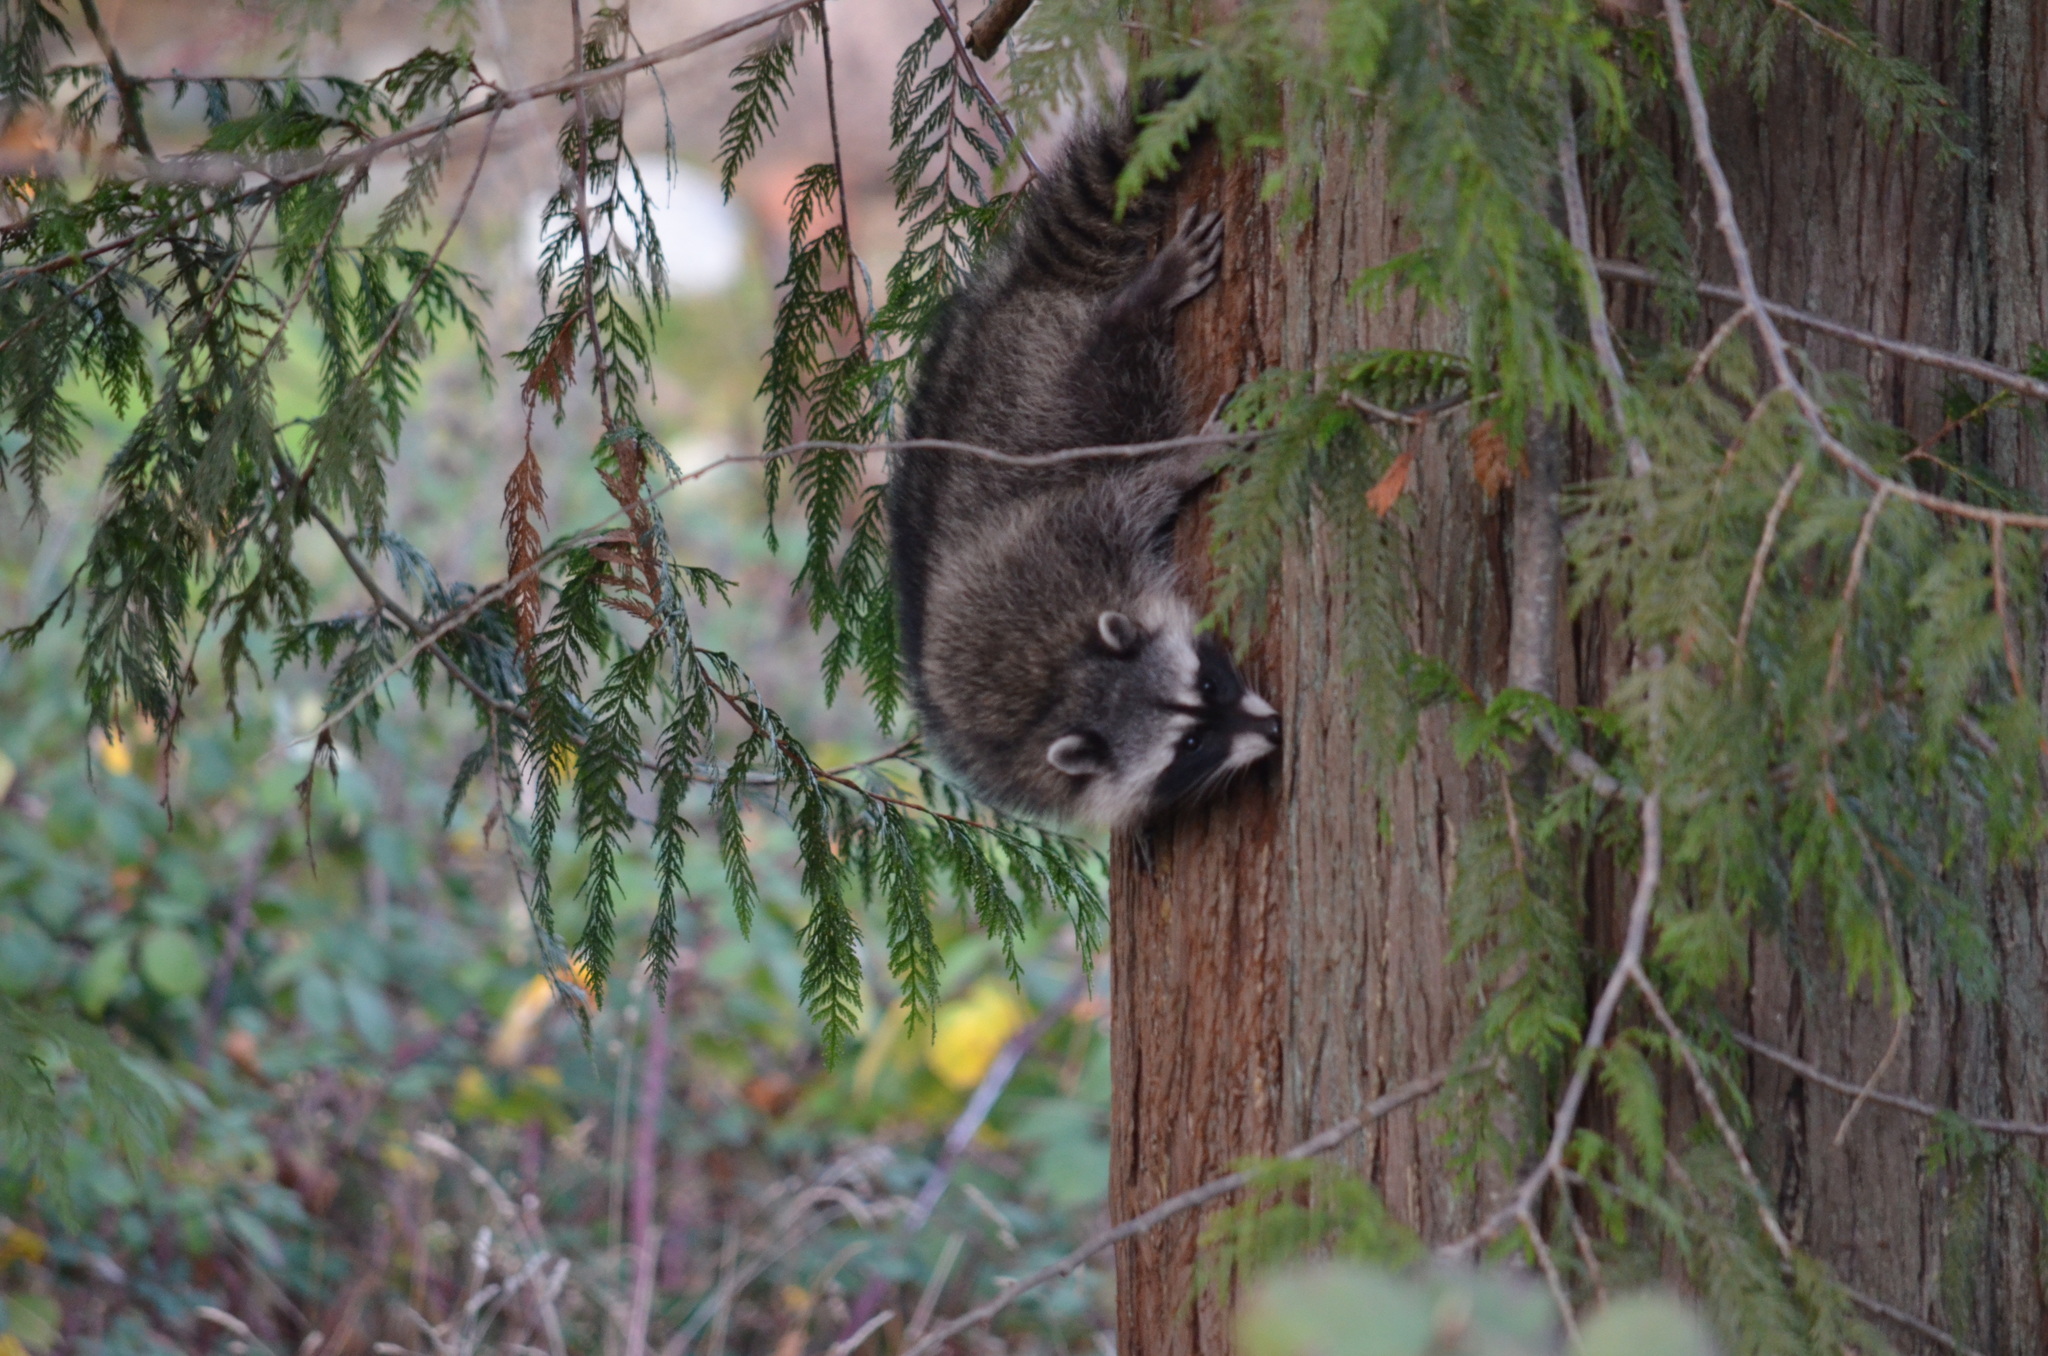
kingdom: Animalia
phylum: Chordata
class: Mammalia
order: Carnivora
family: Procyonidae
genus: Procyon
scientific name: Procyon lotor
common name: Raccoon
